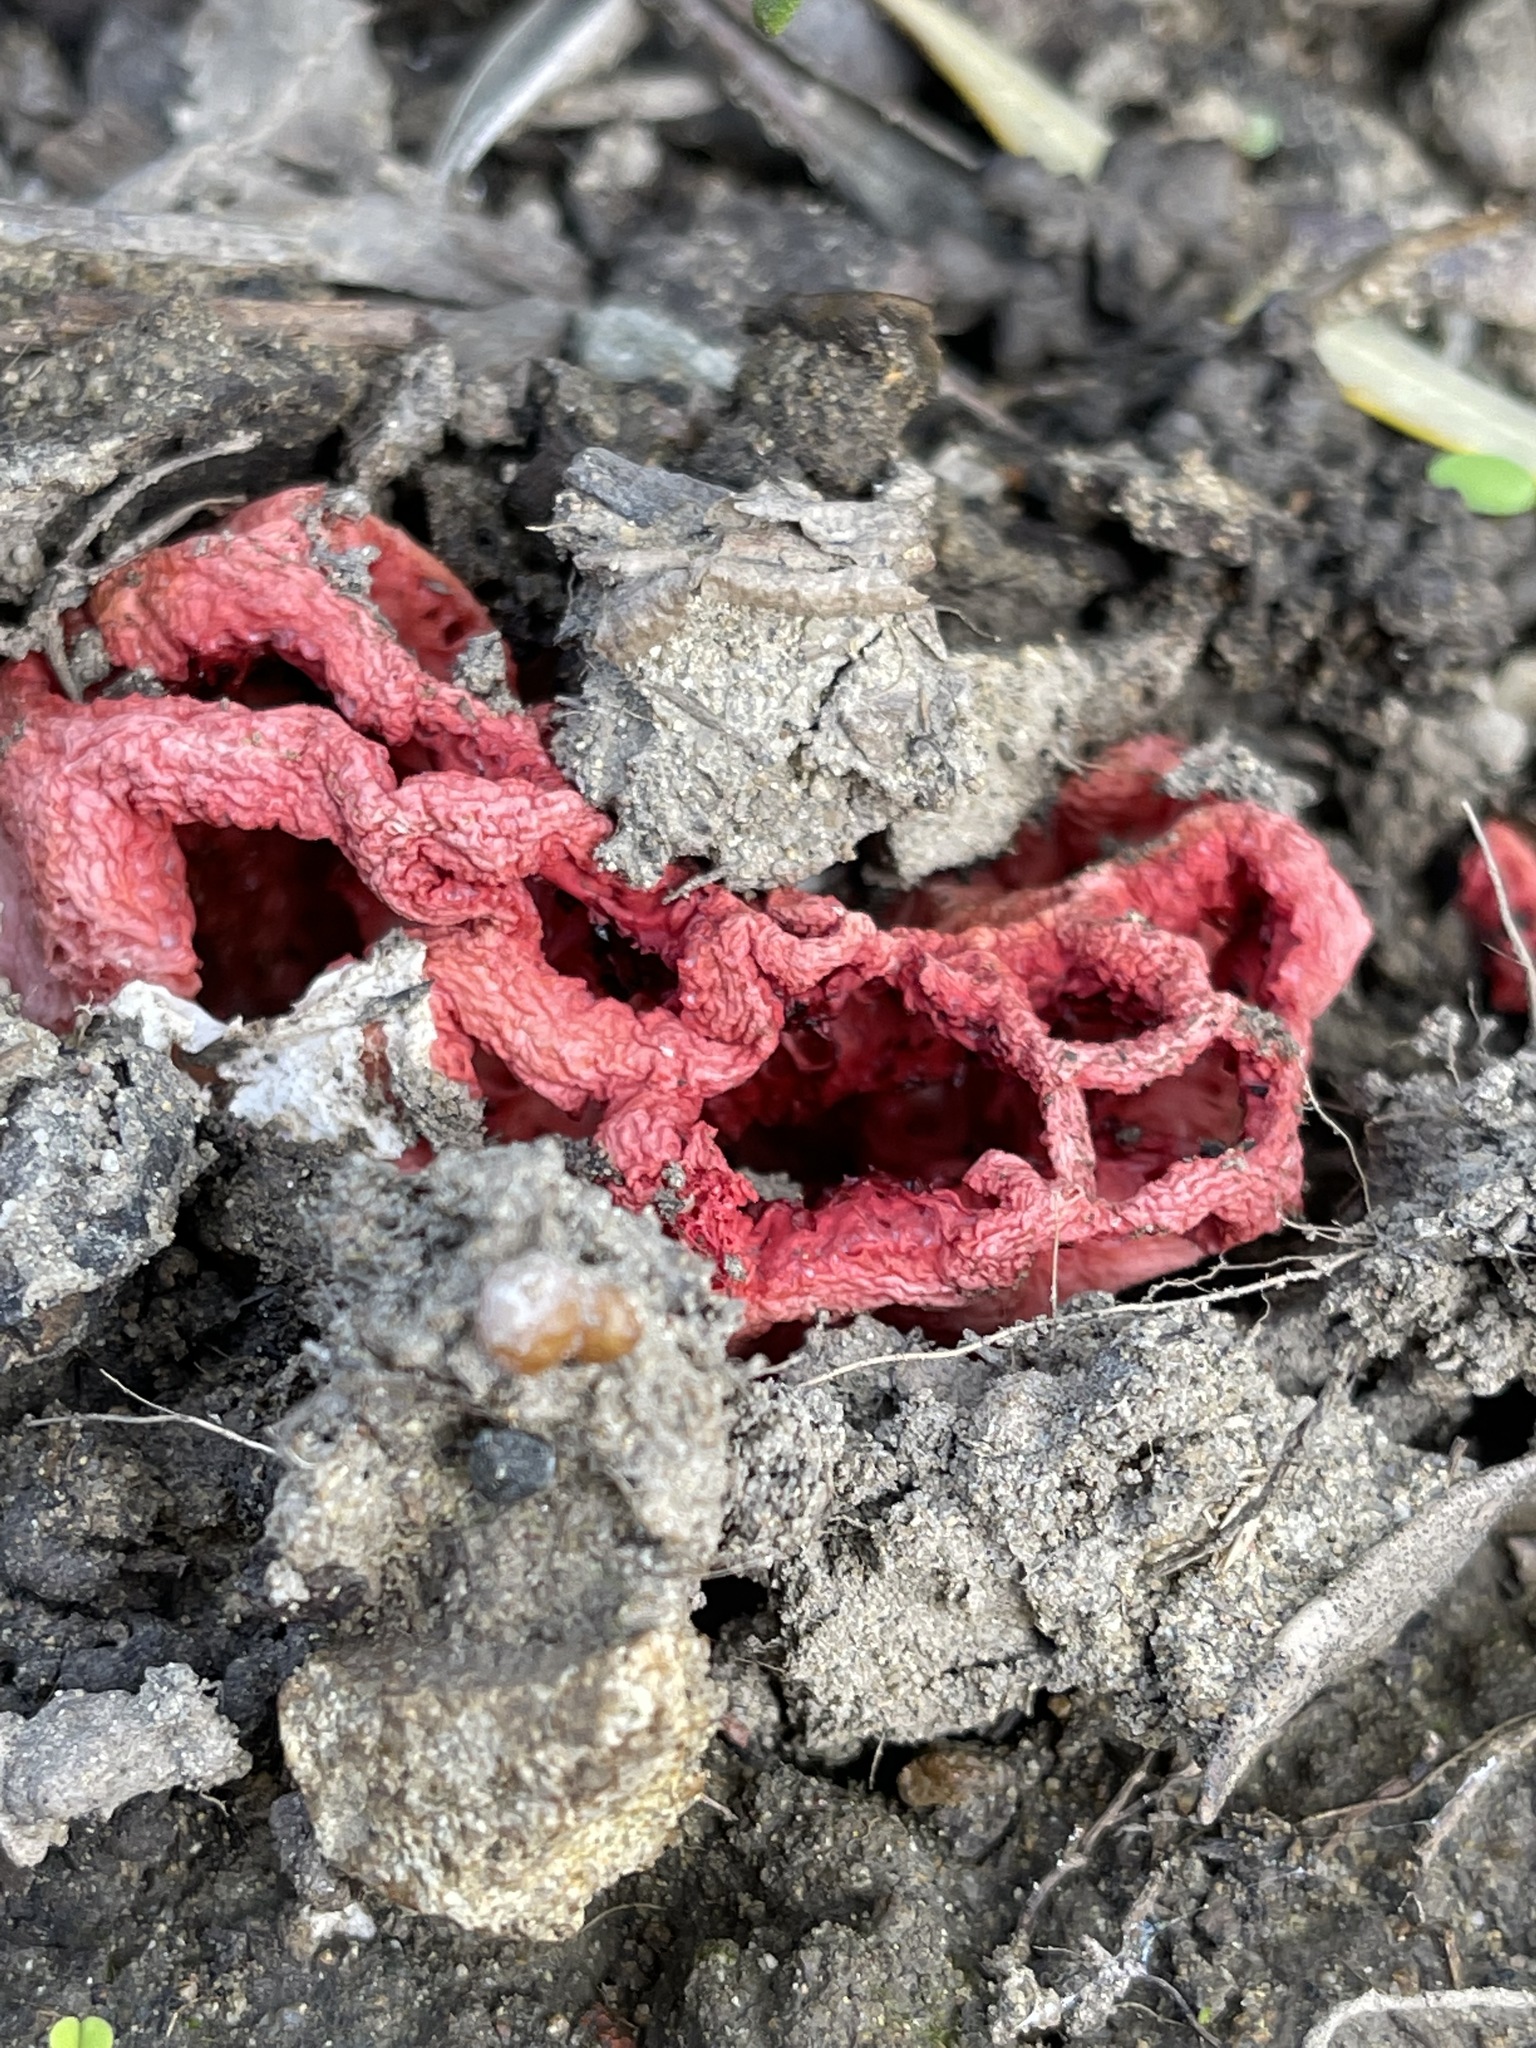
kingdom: Fungi
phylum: Basidiomycota
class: Agaricomycetes
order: Phallales
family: Phallaceae
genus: Clathrus
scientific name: Clathrus ruber
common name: Red cage
